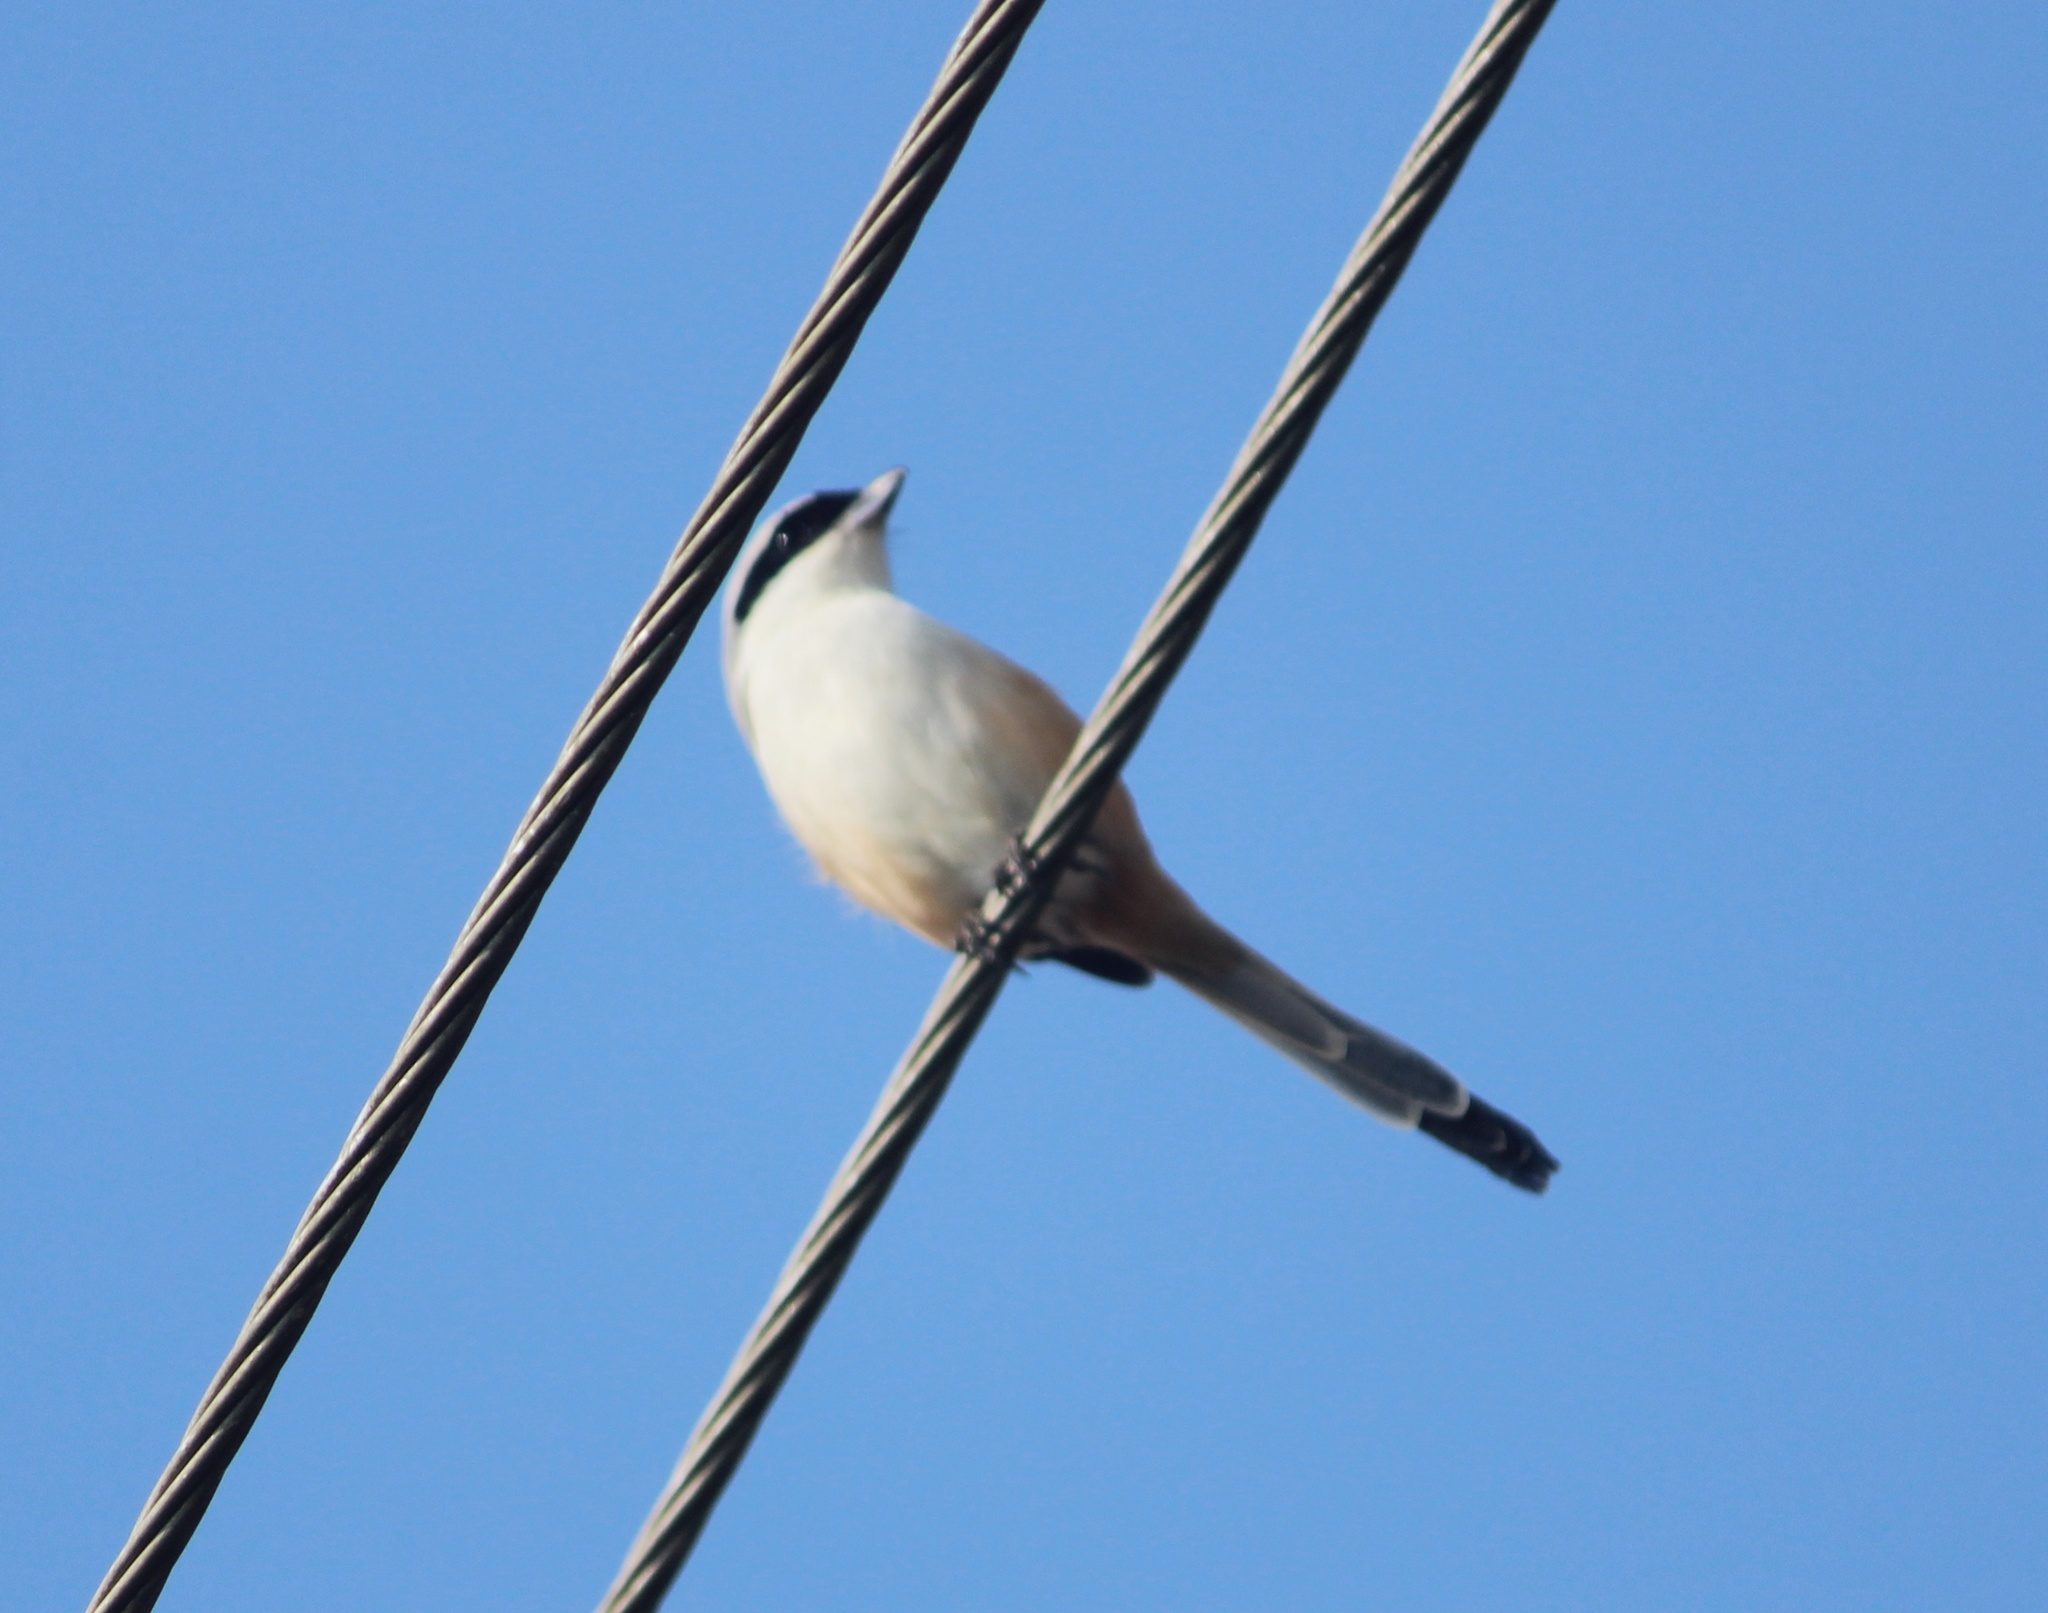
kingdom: Animalia
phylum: Chordata
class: Aves
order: Passeriformes
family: Laniidae
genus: Lanius
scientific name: Lanius schach
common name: Long-tailed shrike
